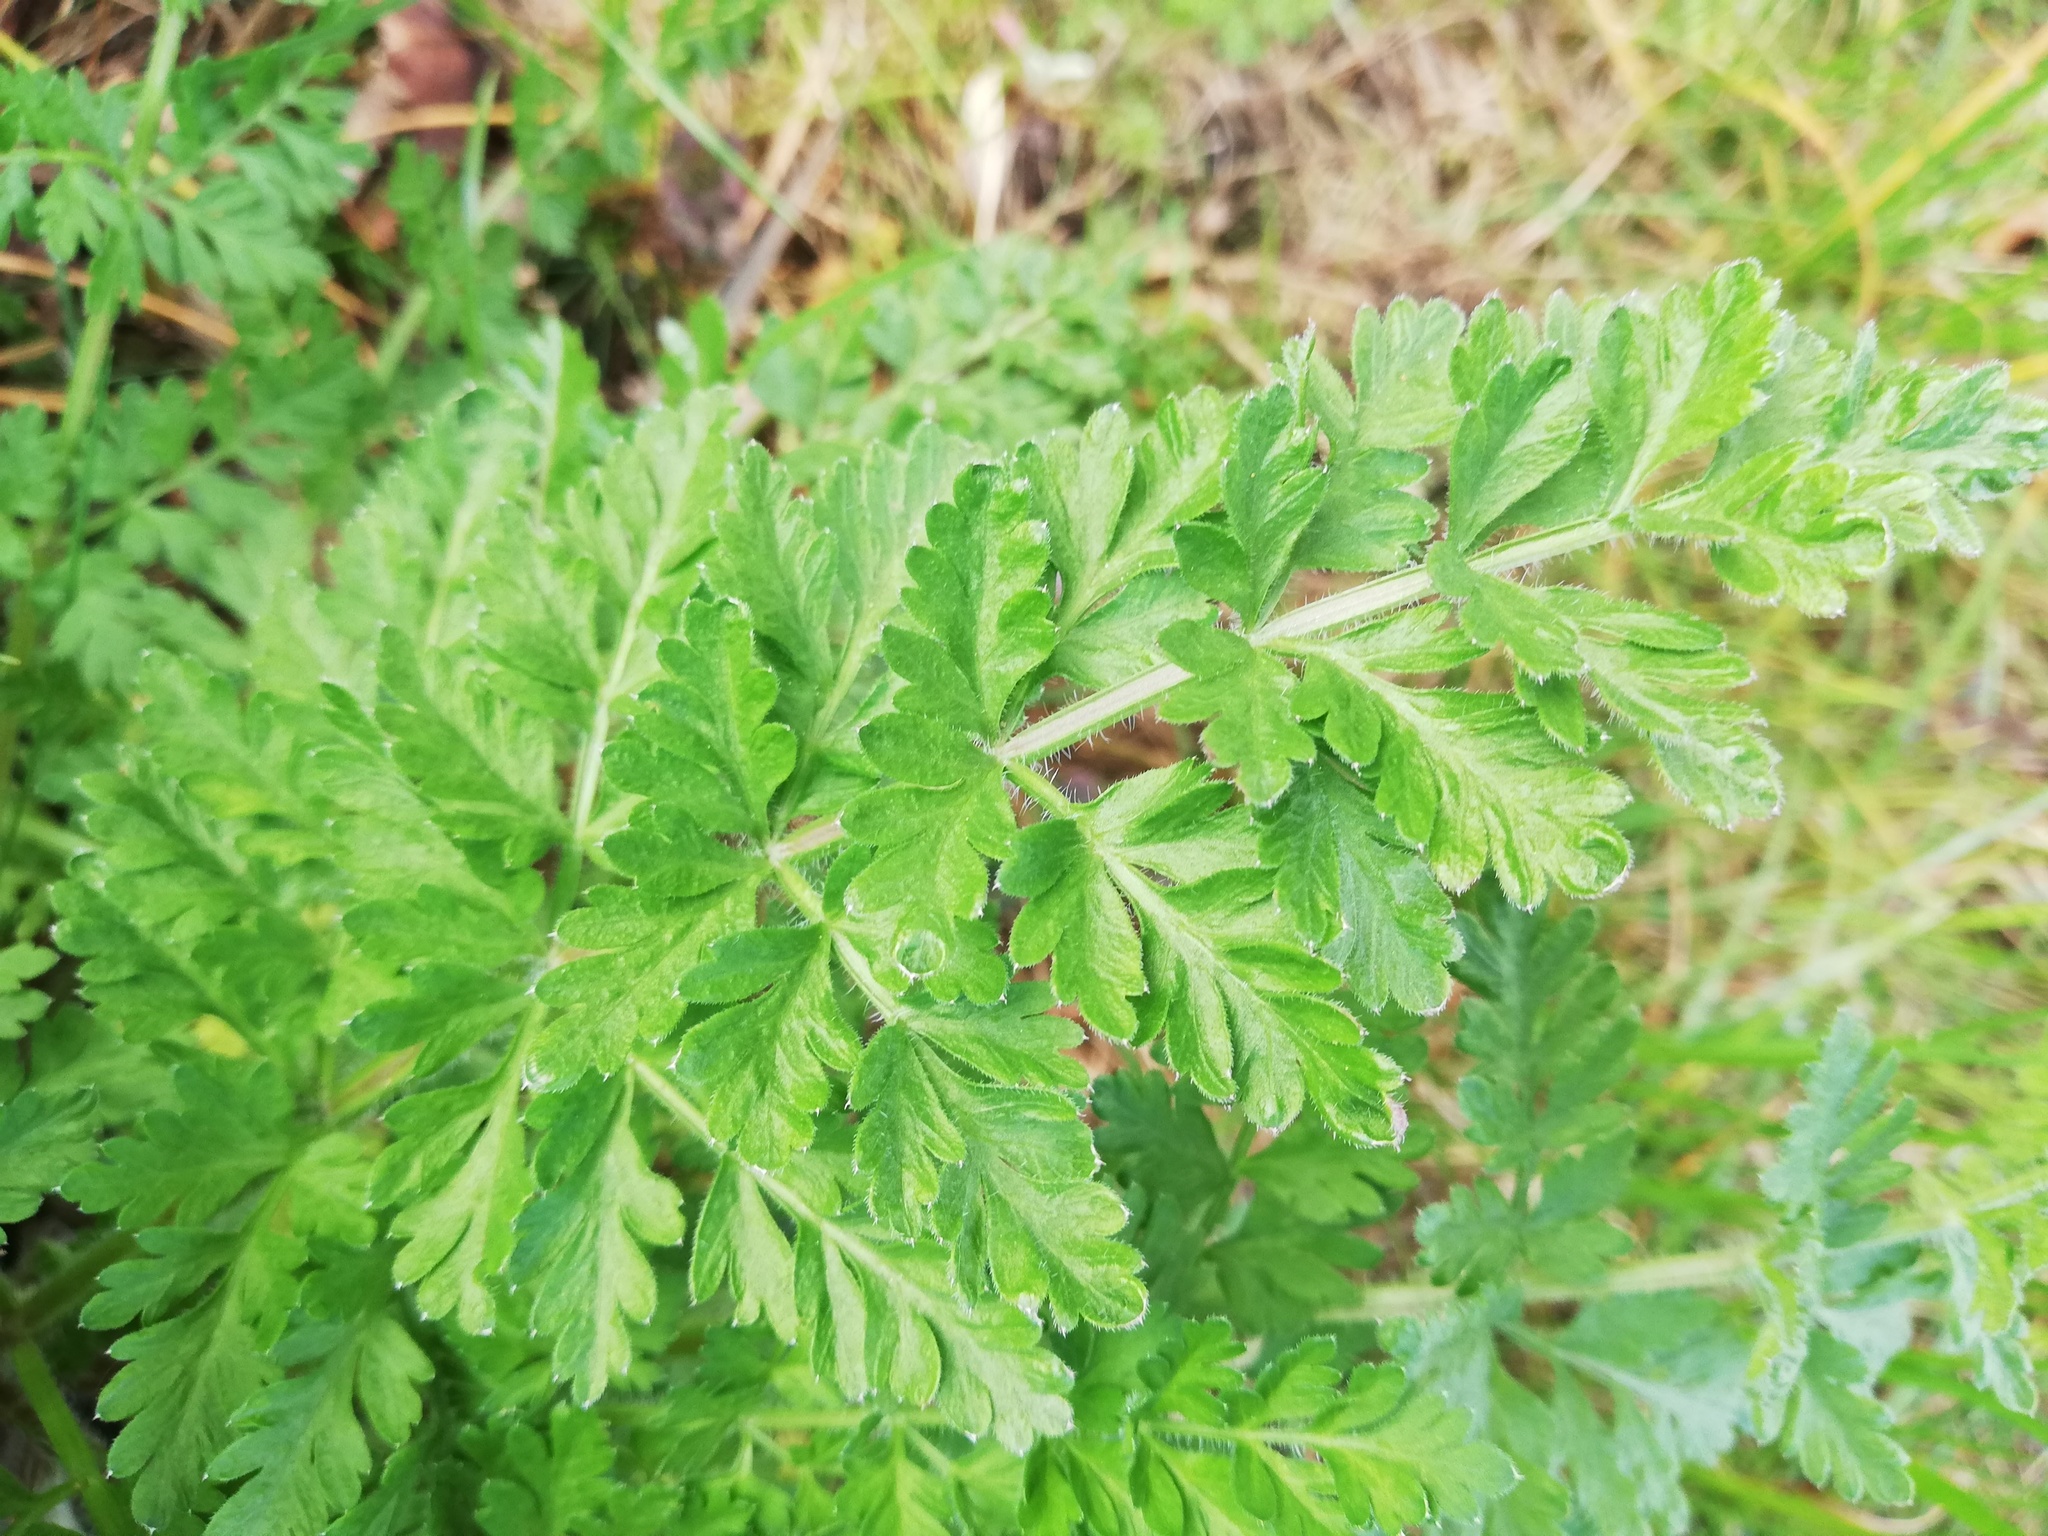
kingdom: Plantae
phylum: Tracheophyta
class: Magnoliopsida
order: Apiales
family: Apiaceae
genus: Daucus
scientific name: Daucus carota
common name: Wild carrot
